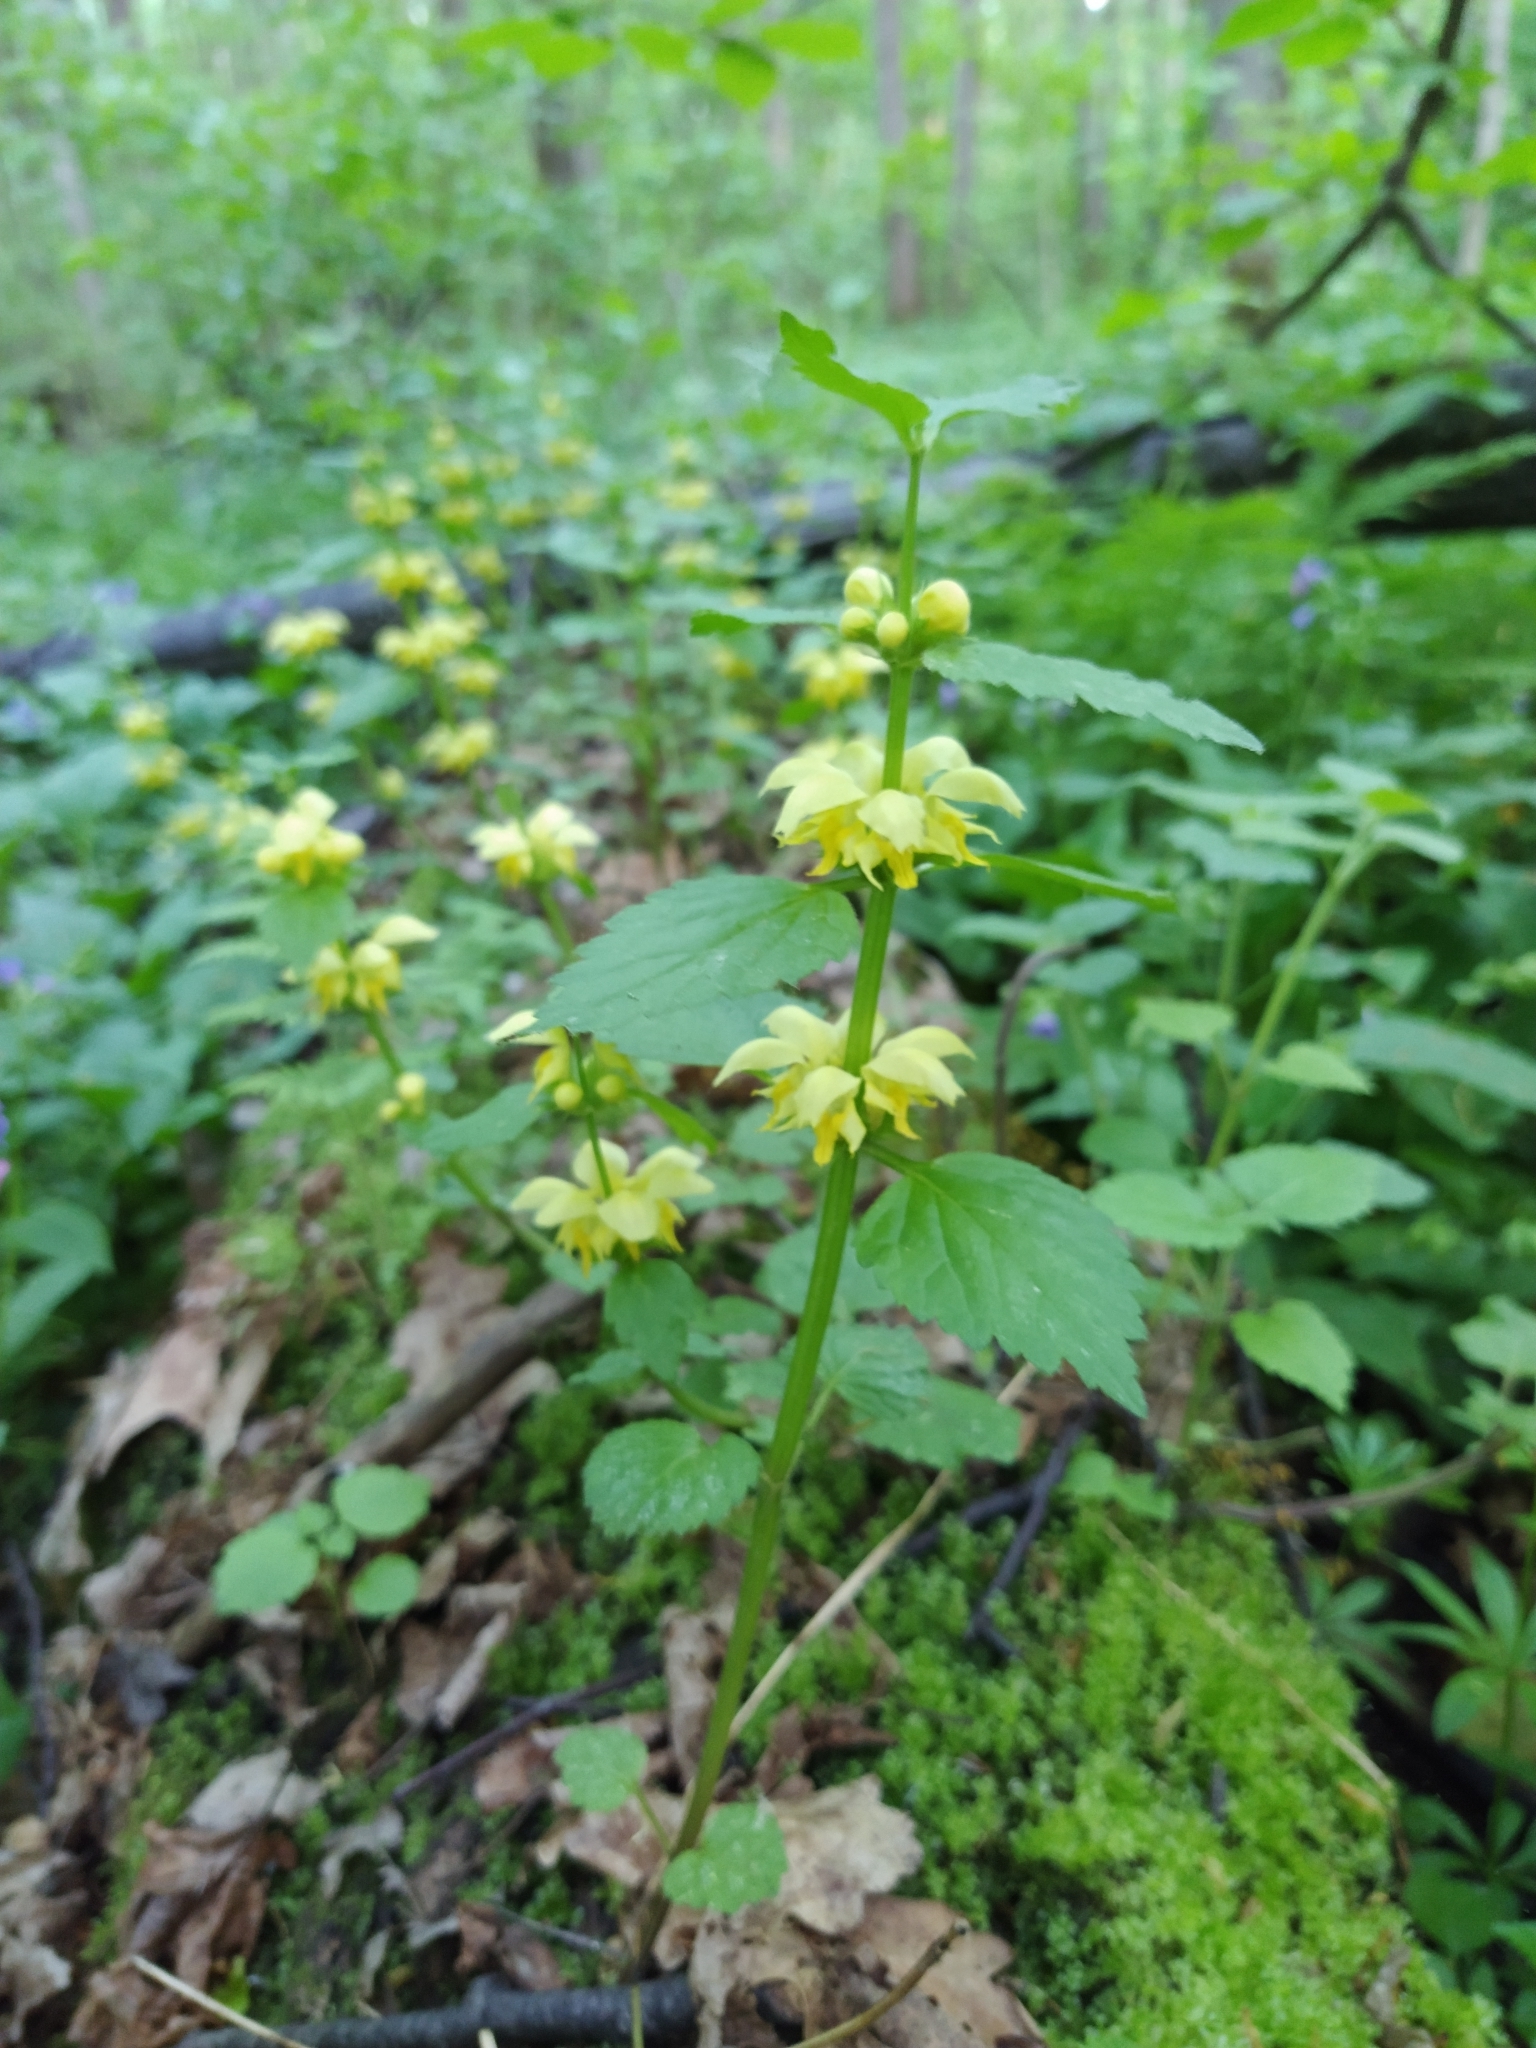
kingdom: Plantae
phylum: Tracheophyta
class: Magnoliopsida
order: Lamiales
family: Lamiaceae
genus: Lamium
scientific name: Lamium galeobdolon
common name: Yellow archangel
